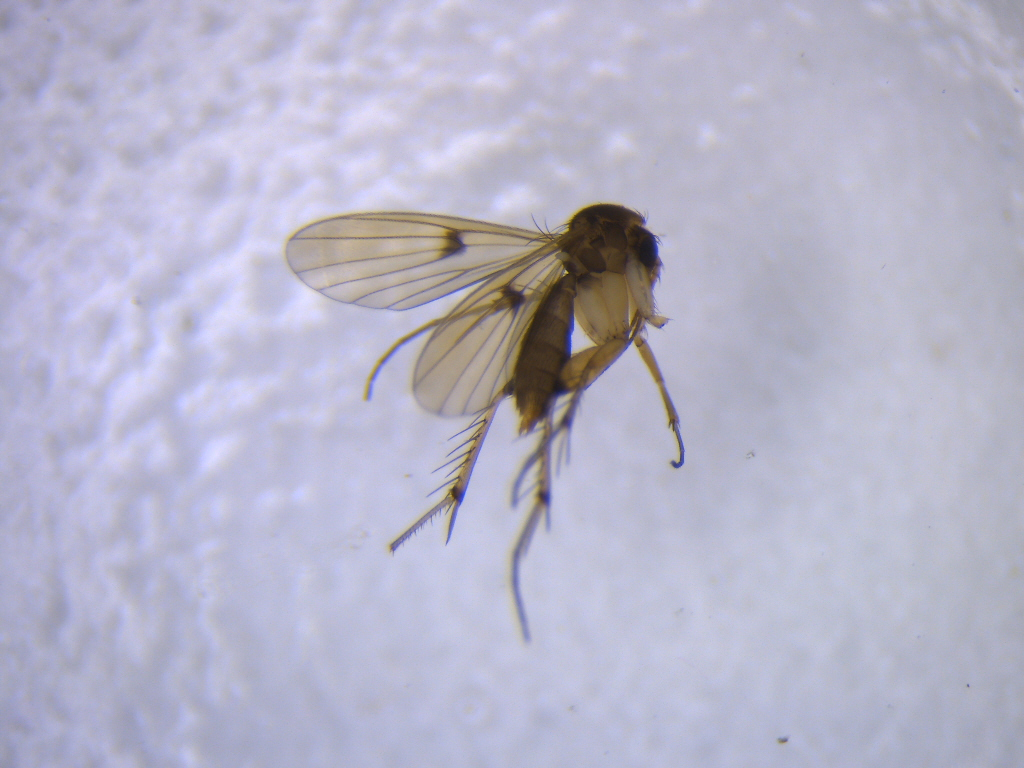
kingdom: Animalia
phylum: Arthropoda
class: Insecta
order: Diptera
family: Mycetophilidae
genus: Mycetophila
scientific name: Mycetophila colorata
